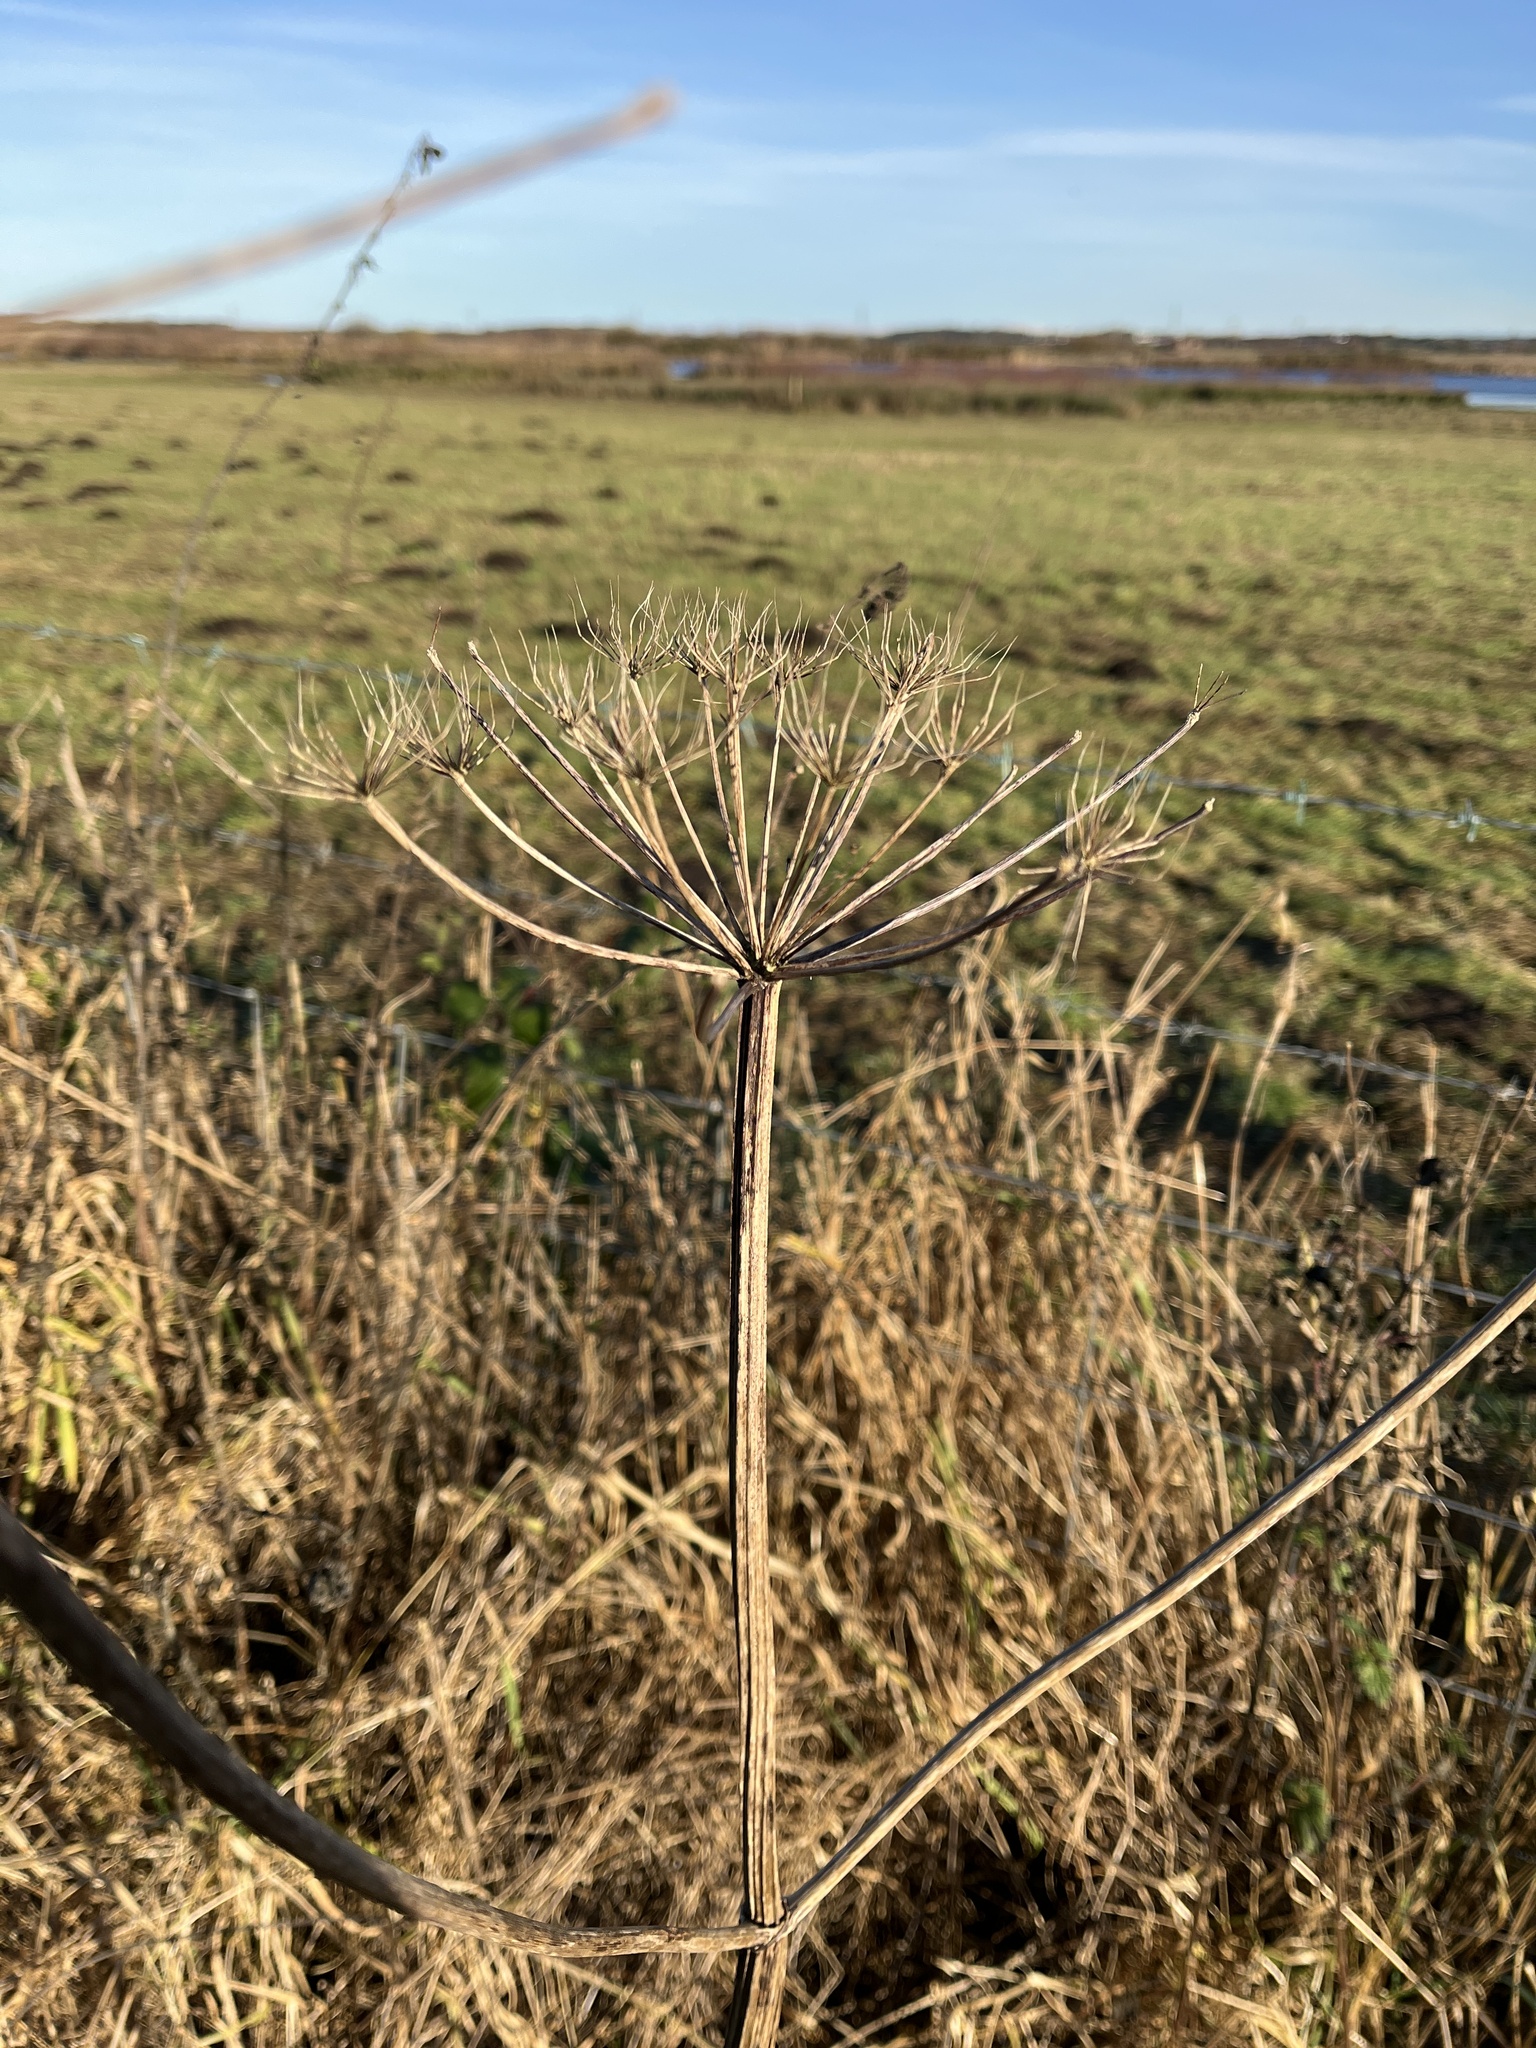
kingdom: Plantae
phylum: Tracheophyta
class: Magnoliopsida
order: Apiales
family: Apiaceae
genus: Heracleum
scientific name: Heracleum sphondylium
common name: Hogweed
